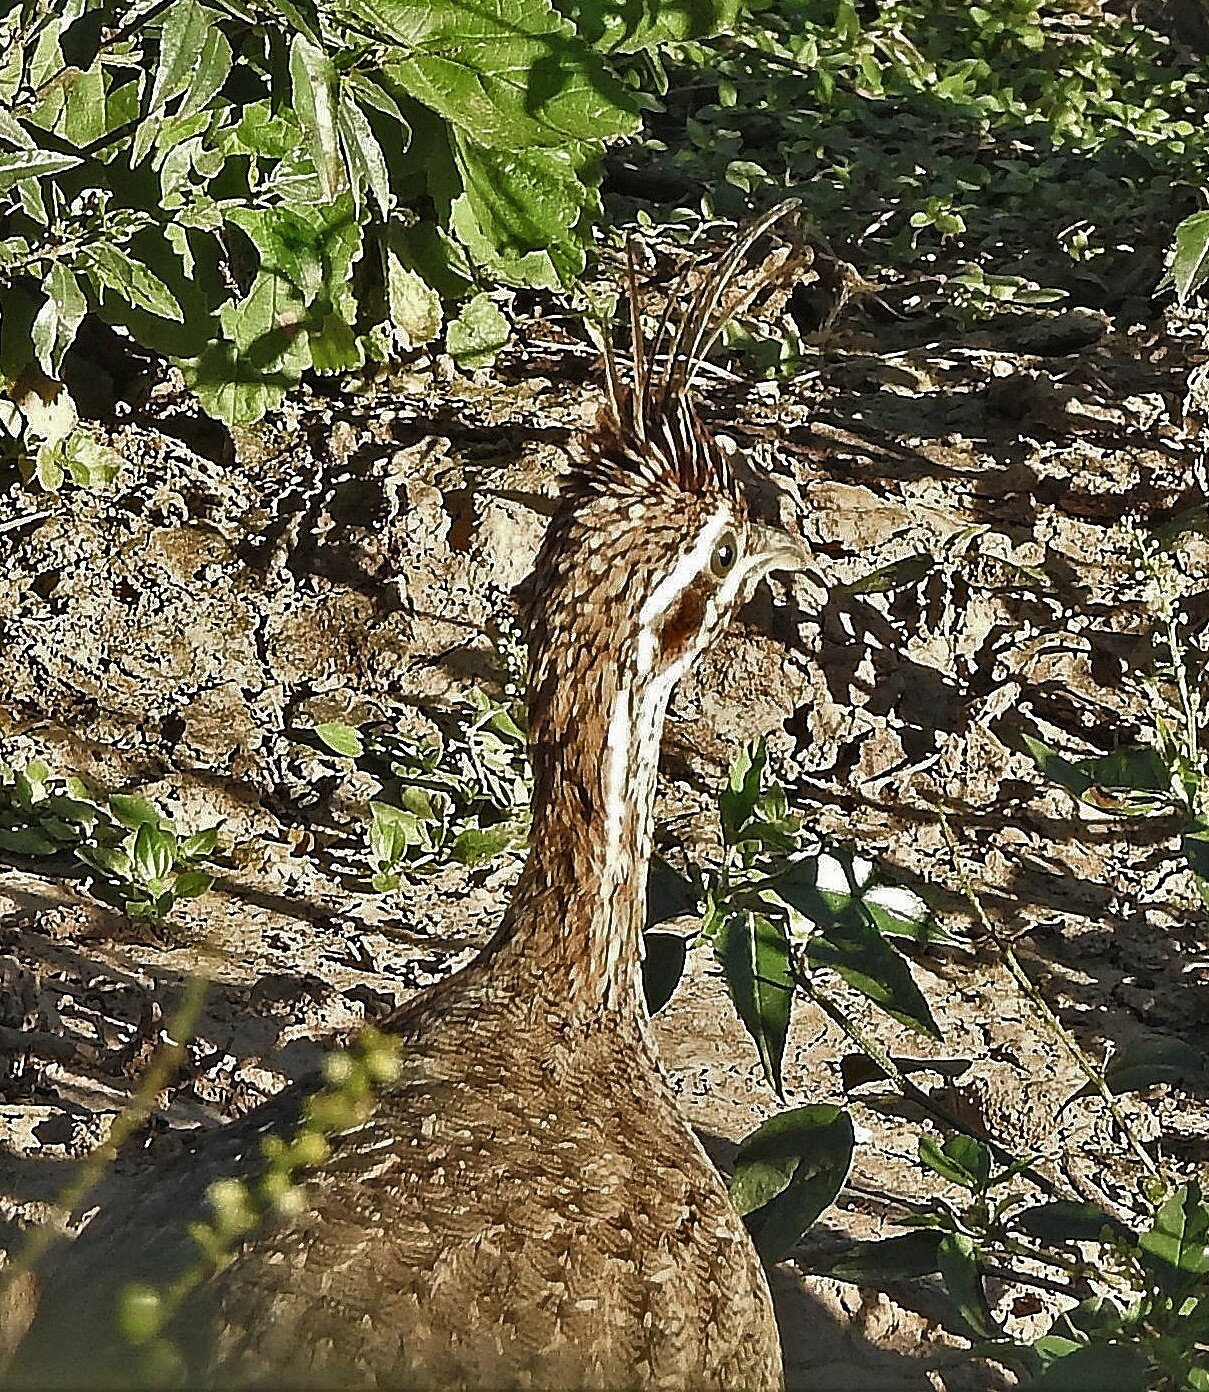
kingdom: Animalia
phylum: Chordata
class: Aves
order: Tinamiformes
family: Tinamidae
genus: Eudromia
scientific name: Eudromia formosa
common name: Quebracho crested tinamou
